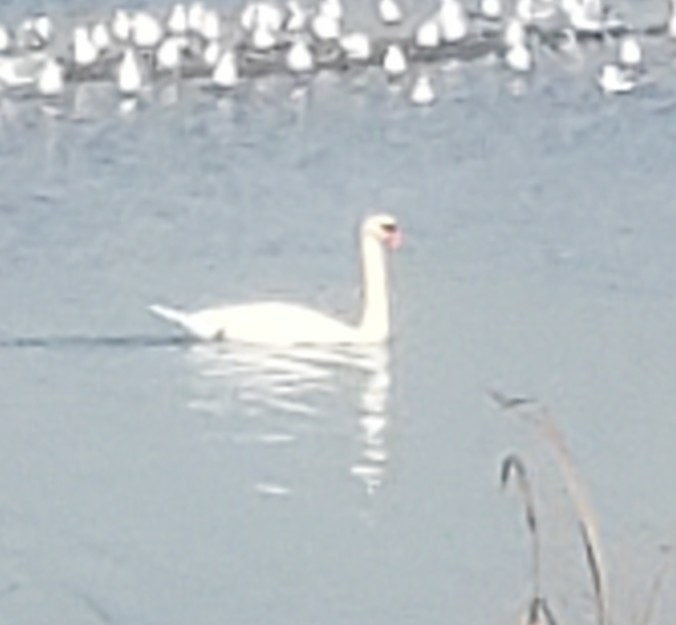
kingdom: Animalia
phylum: Chordata
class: Aves
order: Anseriformes
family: Anatidae
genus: Cygnus
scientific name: Cygnus olor
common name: Mute swan
